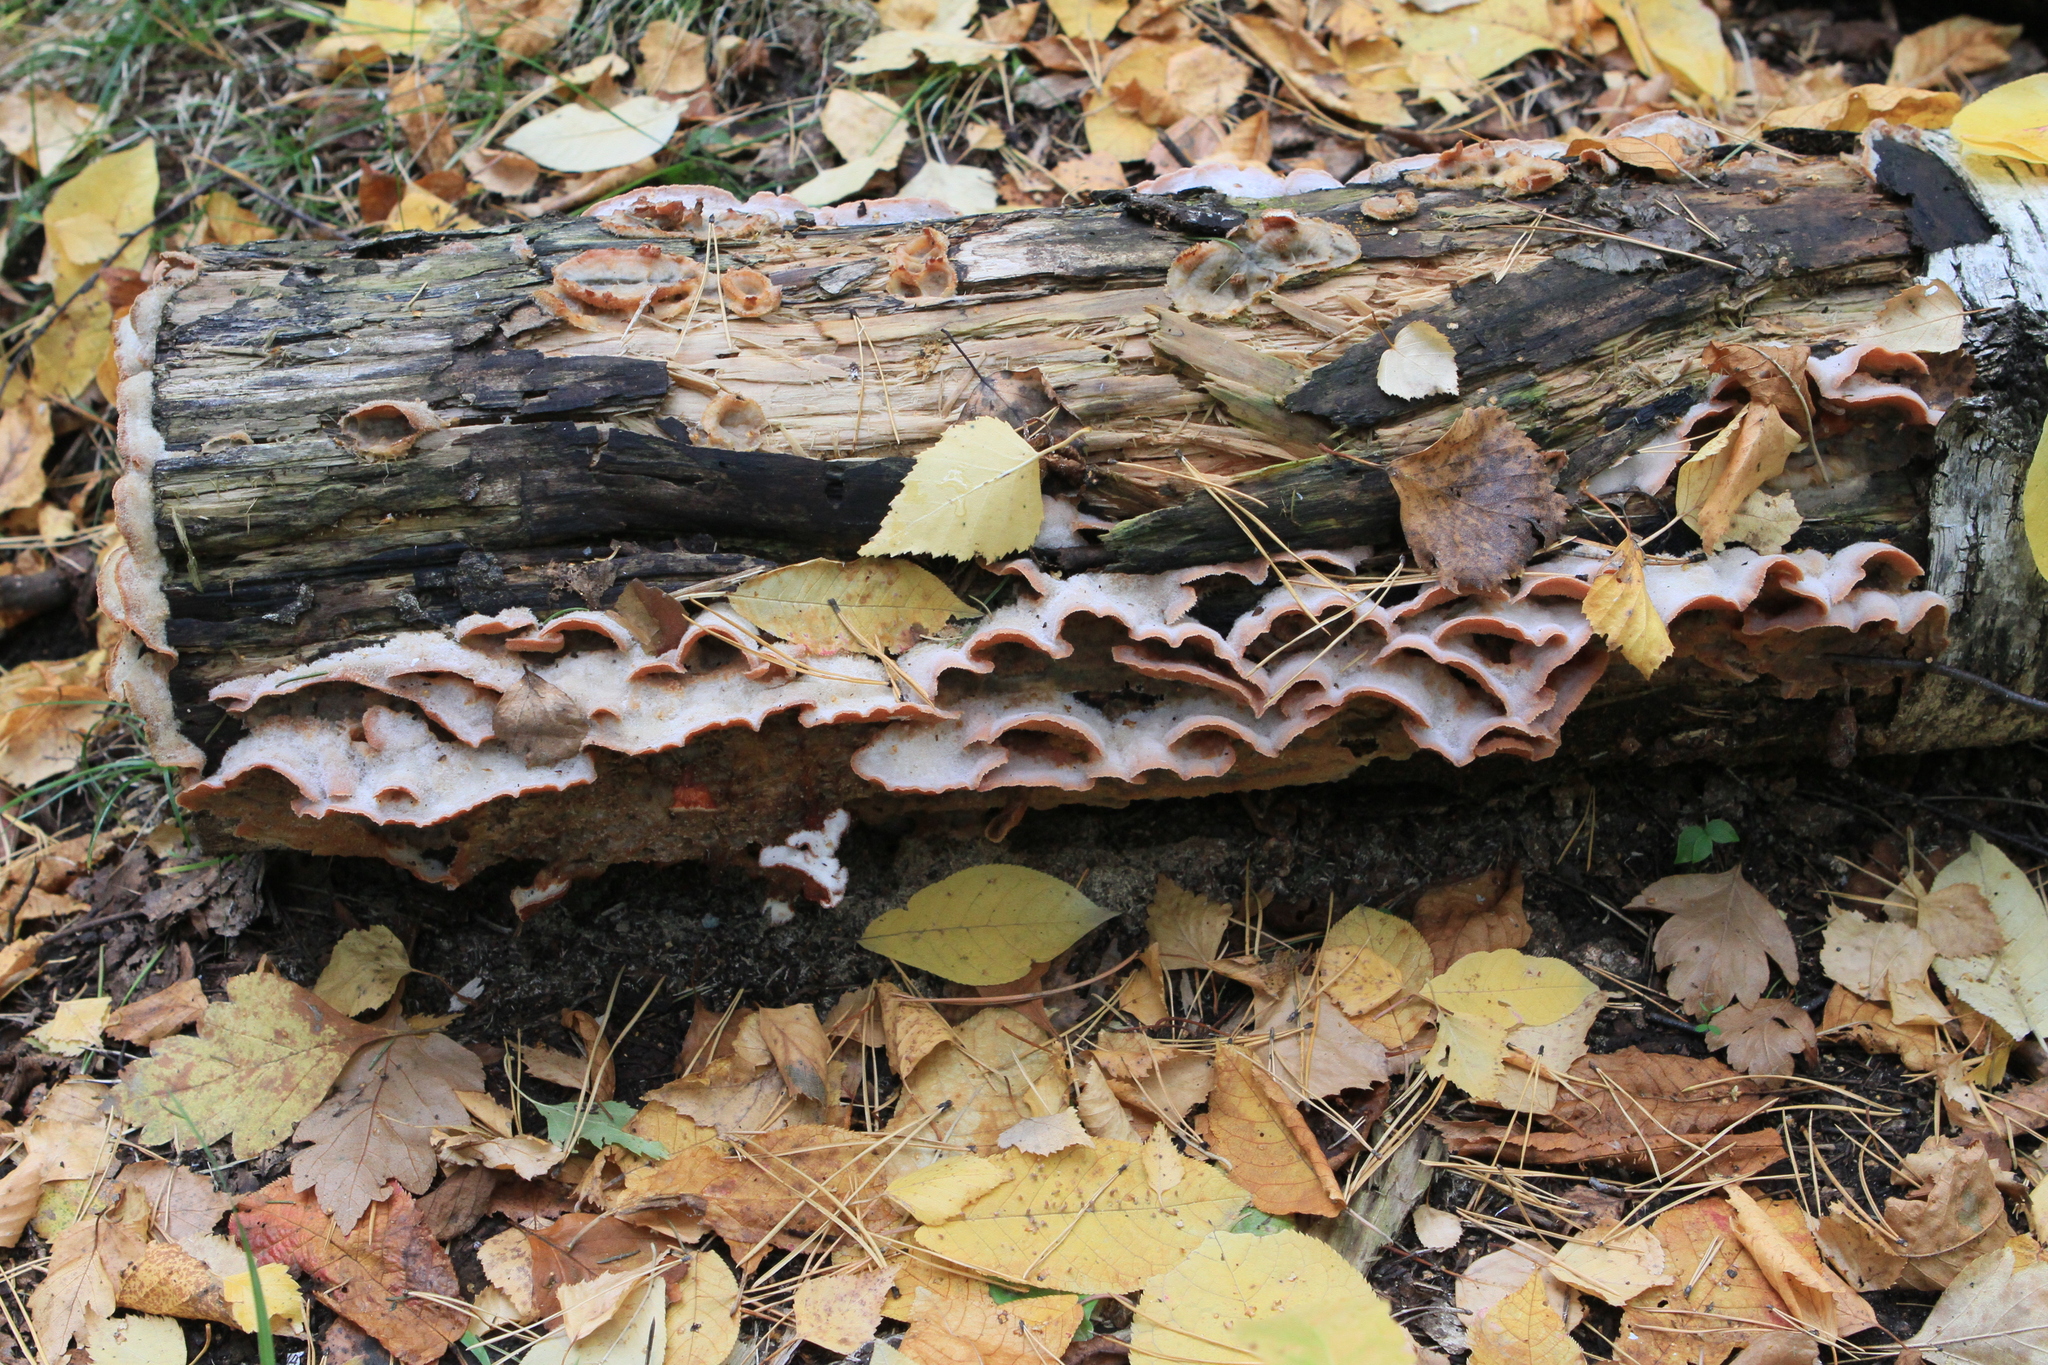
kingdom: Fungi
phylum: Basidiomycota
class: Agaricomycetes
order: Polyporales
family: Meruliaceae
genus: Phlebia
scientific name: Phlebia tremellosa
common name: Jelly rot
